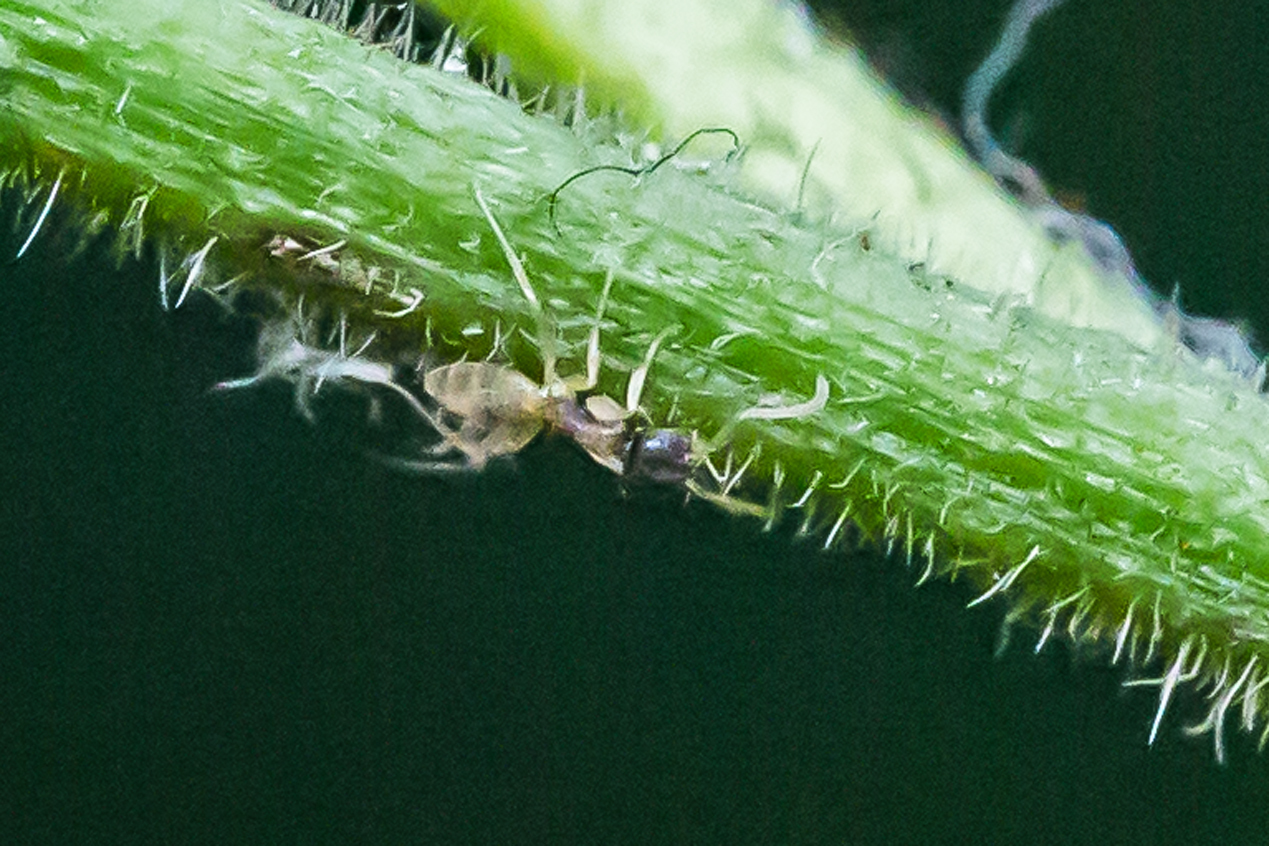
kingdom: Animalia
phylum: Arthropoda
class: Insecta
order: Hymenoptera
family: Formicidae
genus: Tapinoma
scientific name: Tapinoma melanocephalum
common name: Ghost ant
